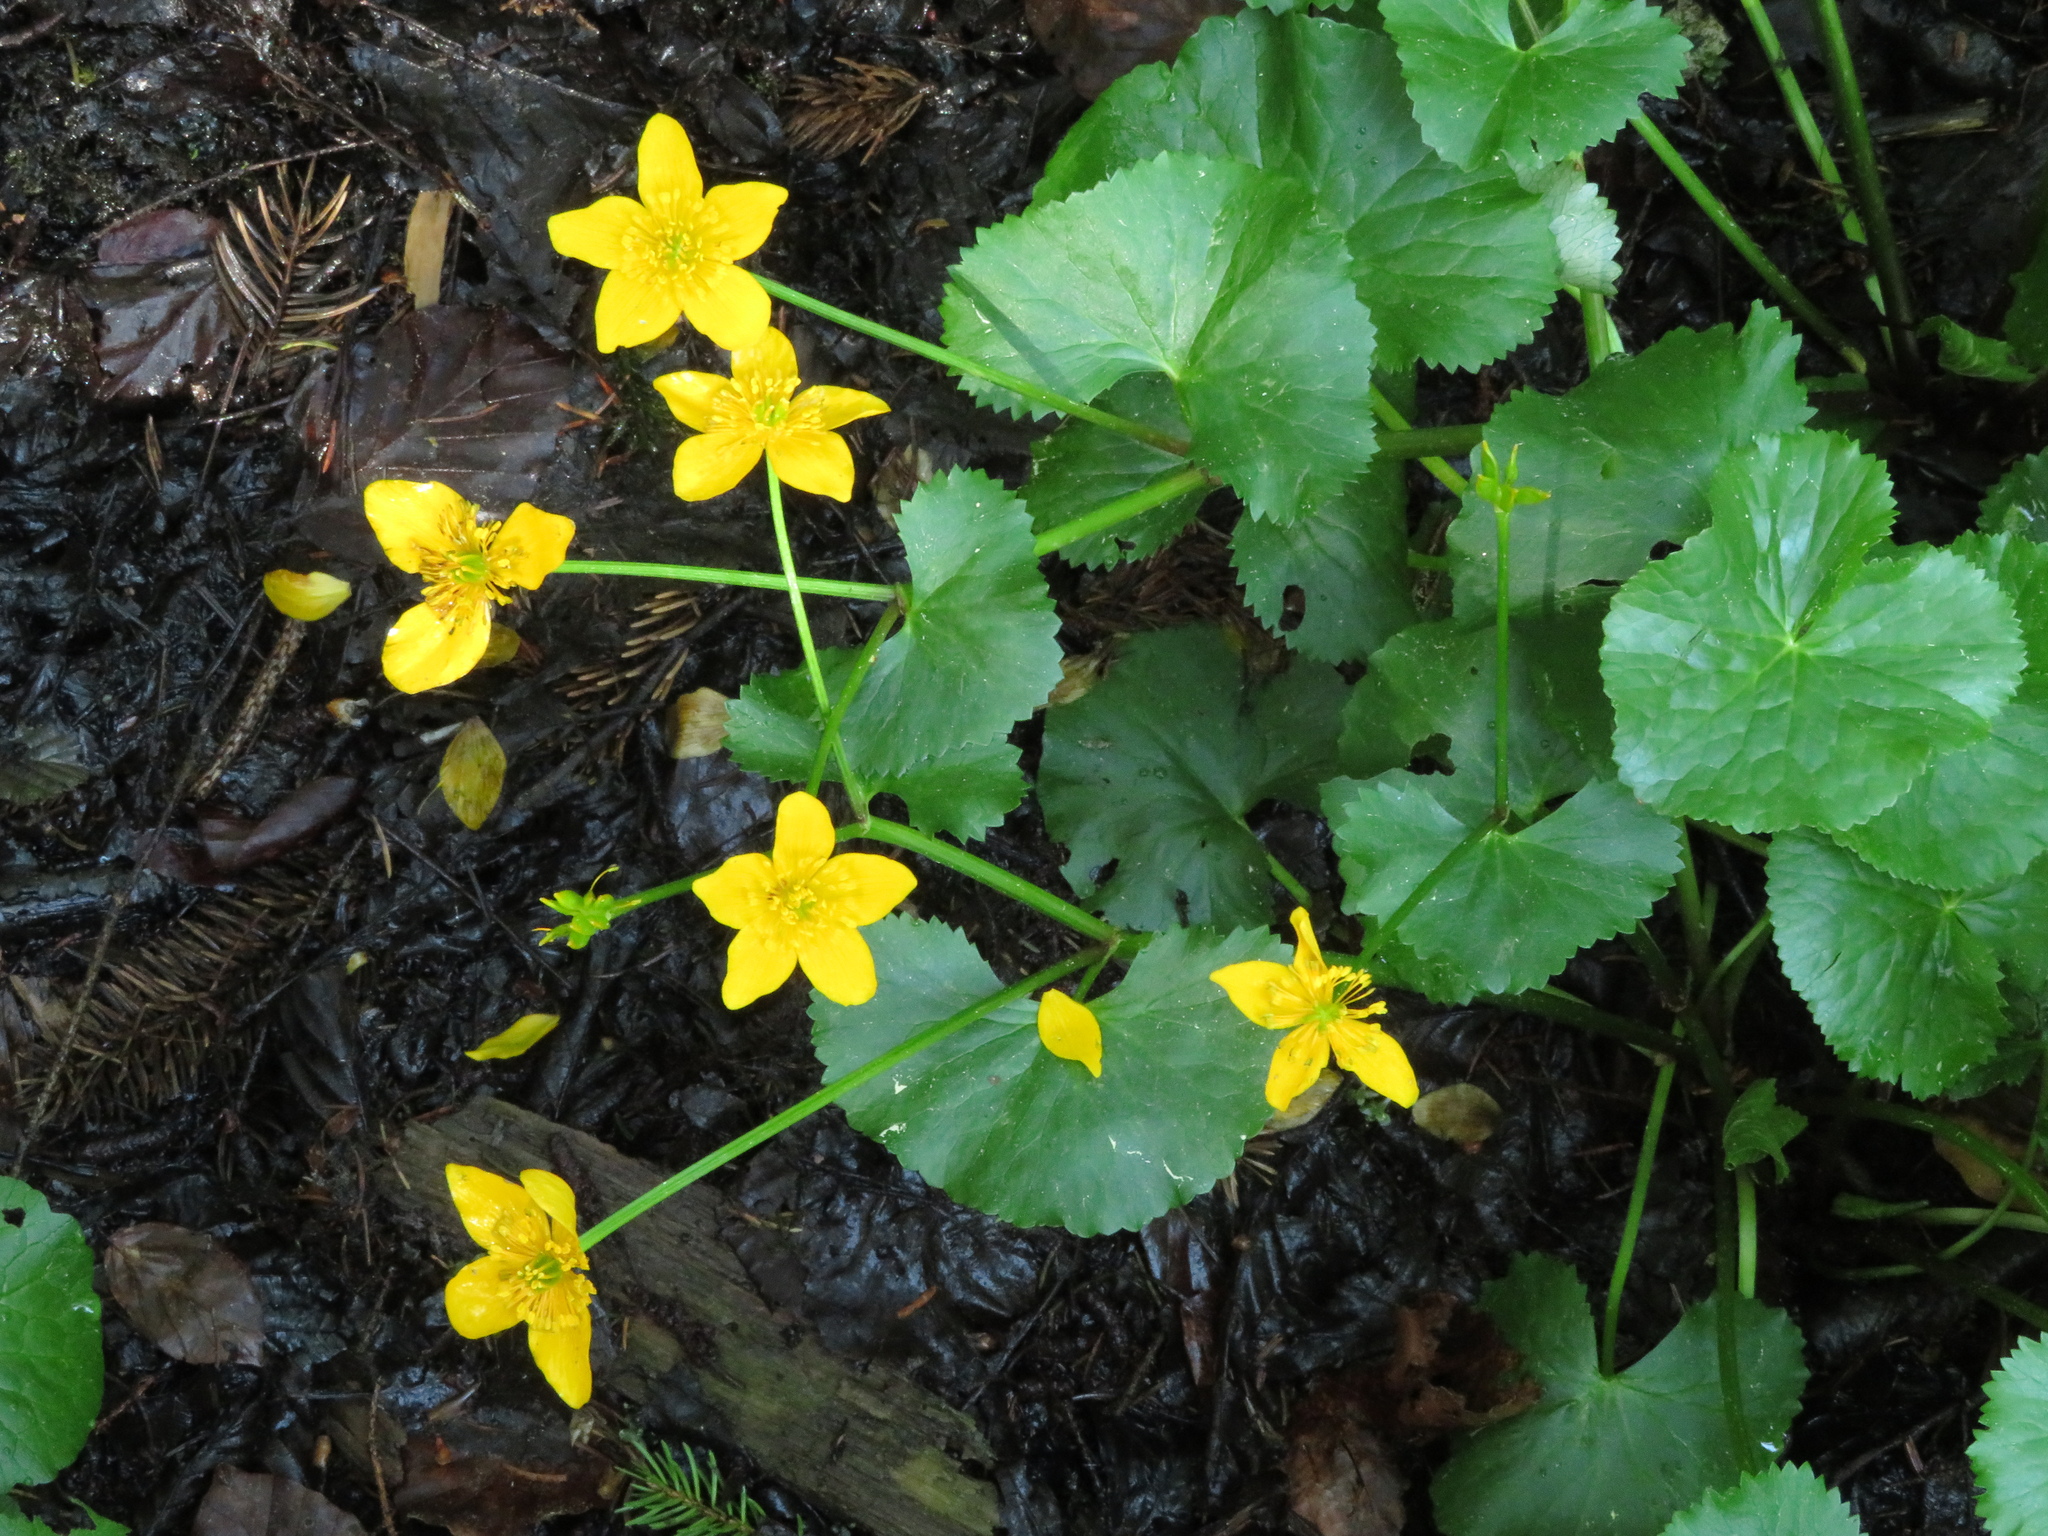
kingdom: Plantae
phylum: Tracheophyta
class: Magnoliopsida
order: Ranunculales
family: Ranunculaceae
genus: Caltha
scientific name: Caltha palustris
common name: Marsh marigold
